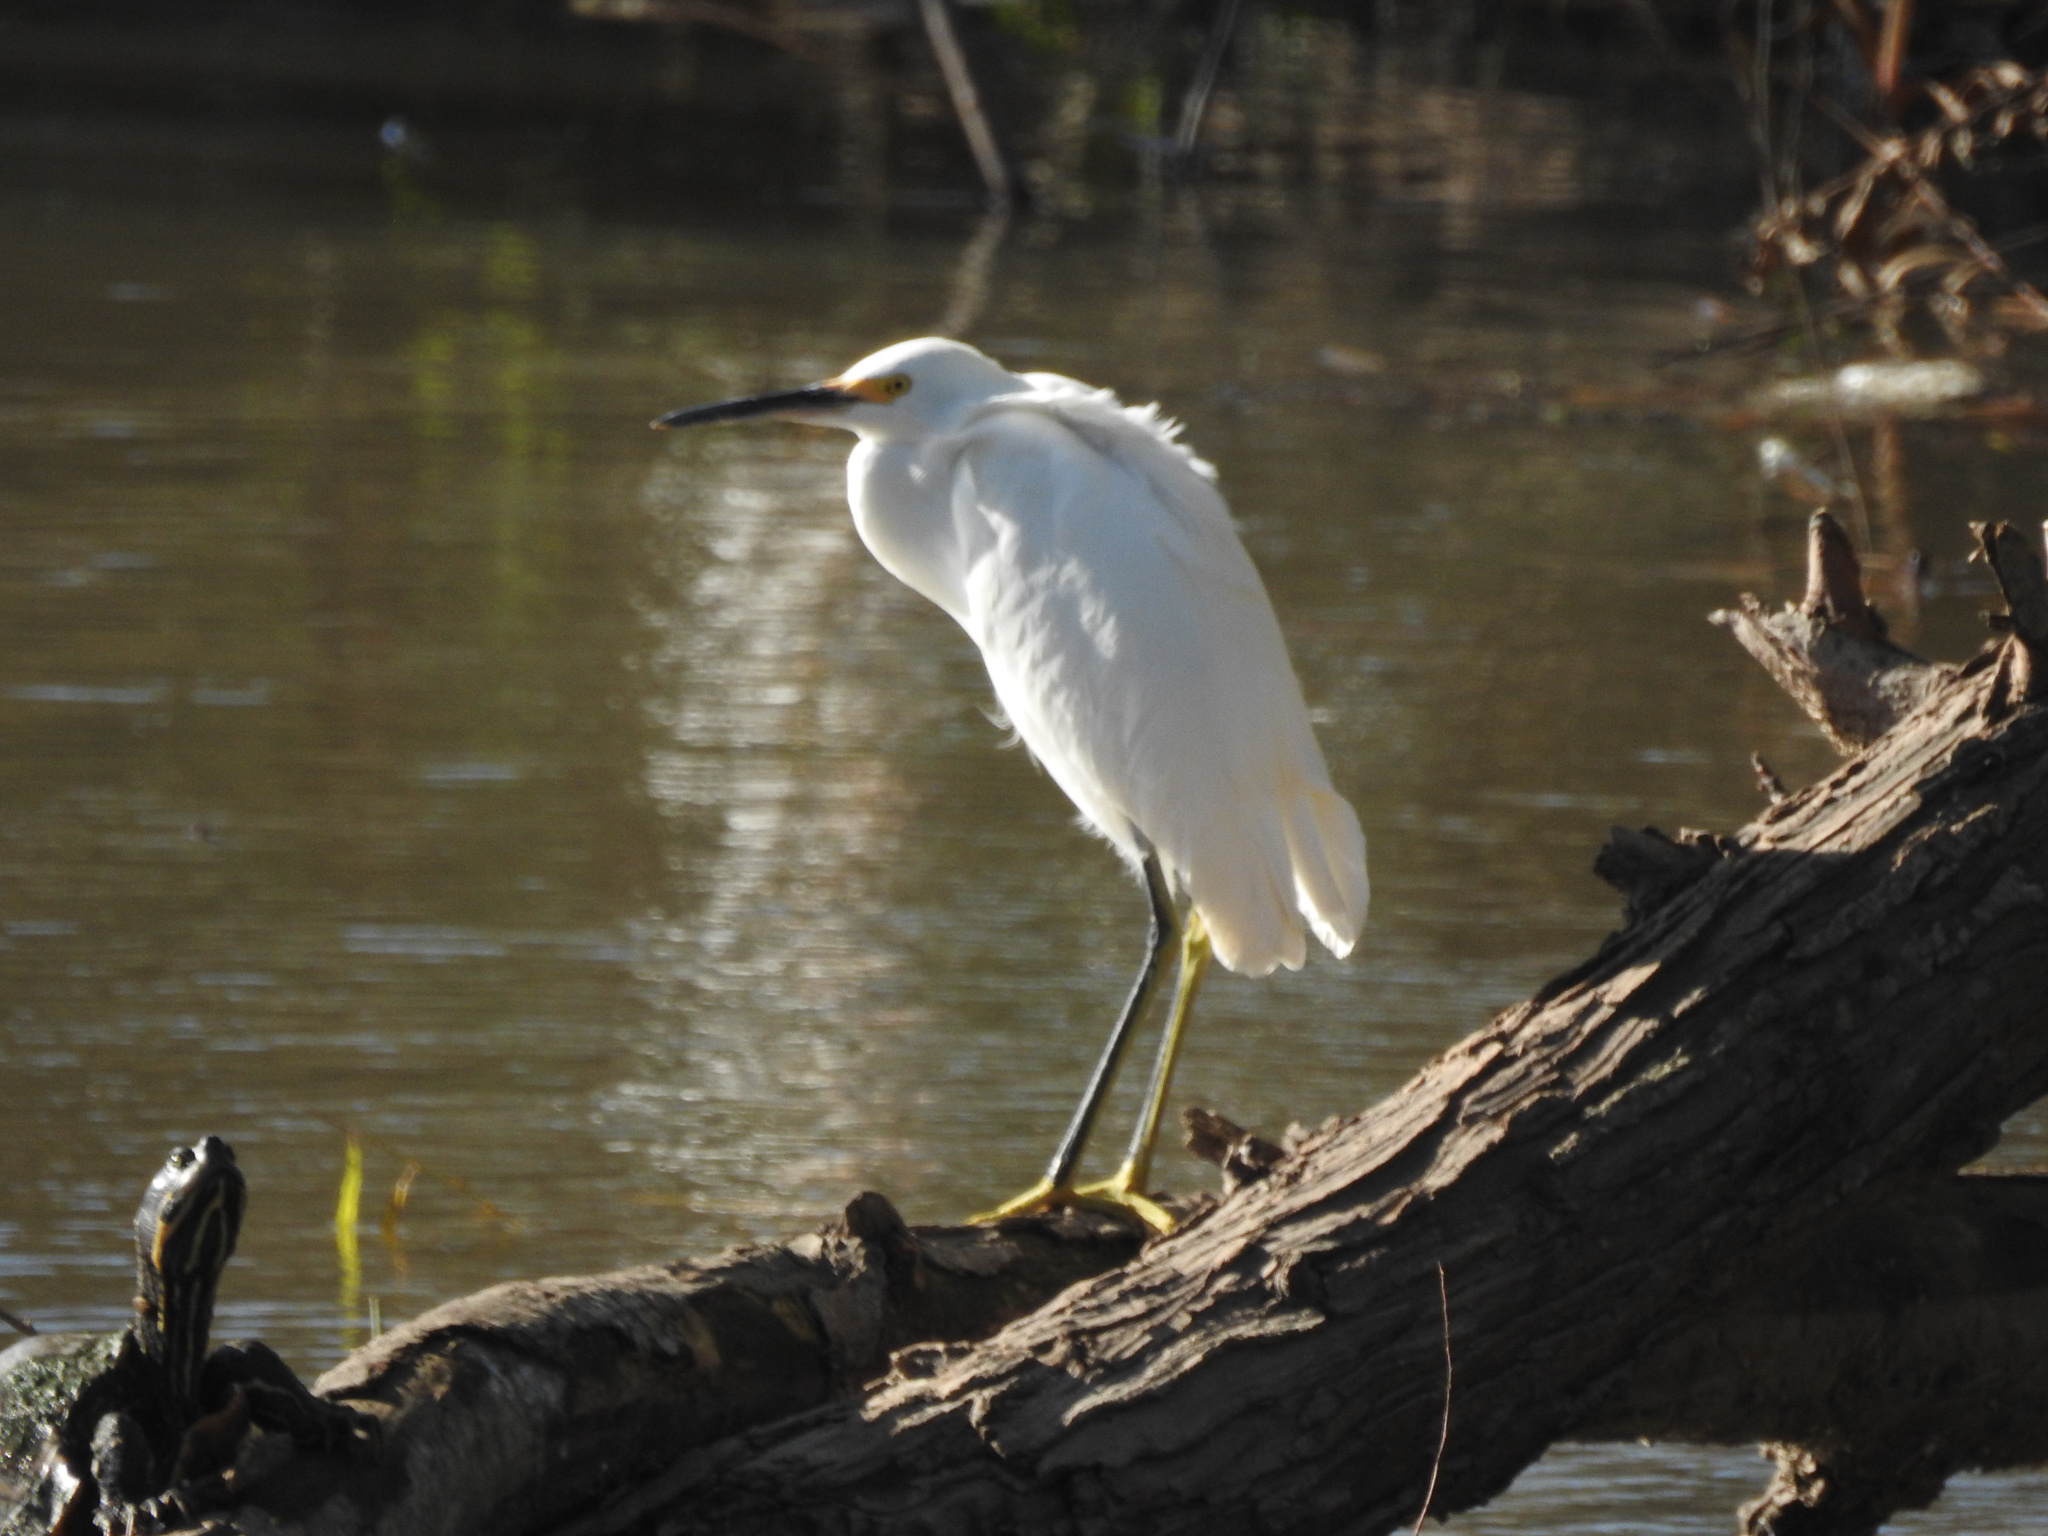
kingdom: Animalia
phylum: Chordata
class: Aves
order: Pelecaniformes
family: Ardeidae
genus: Egretta
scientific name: Egretta thula
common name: Snowy egret
